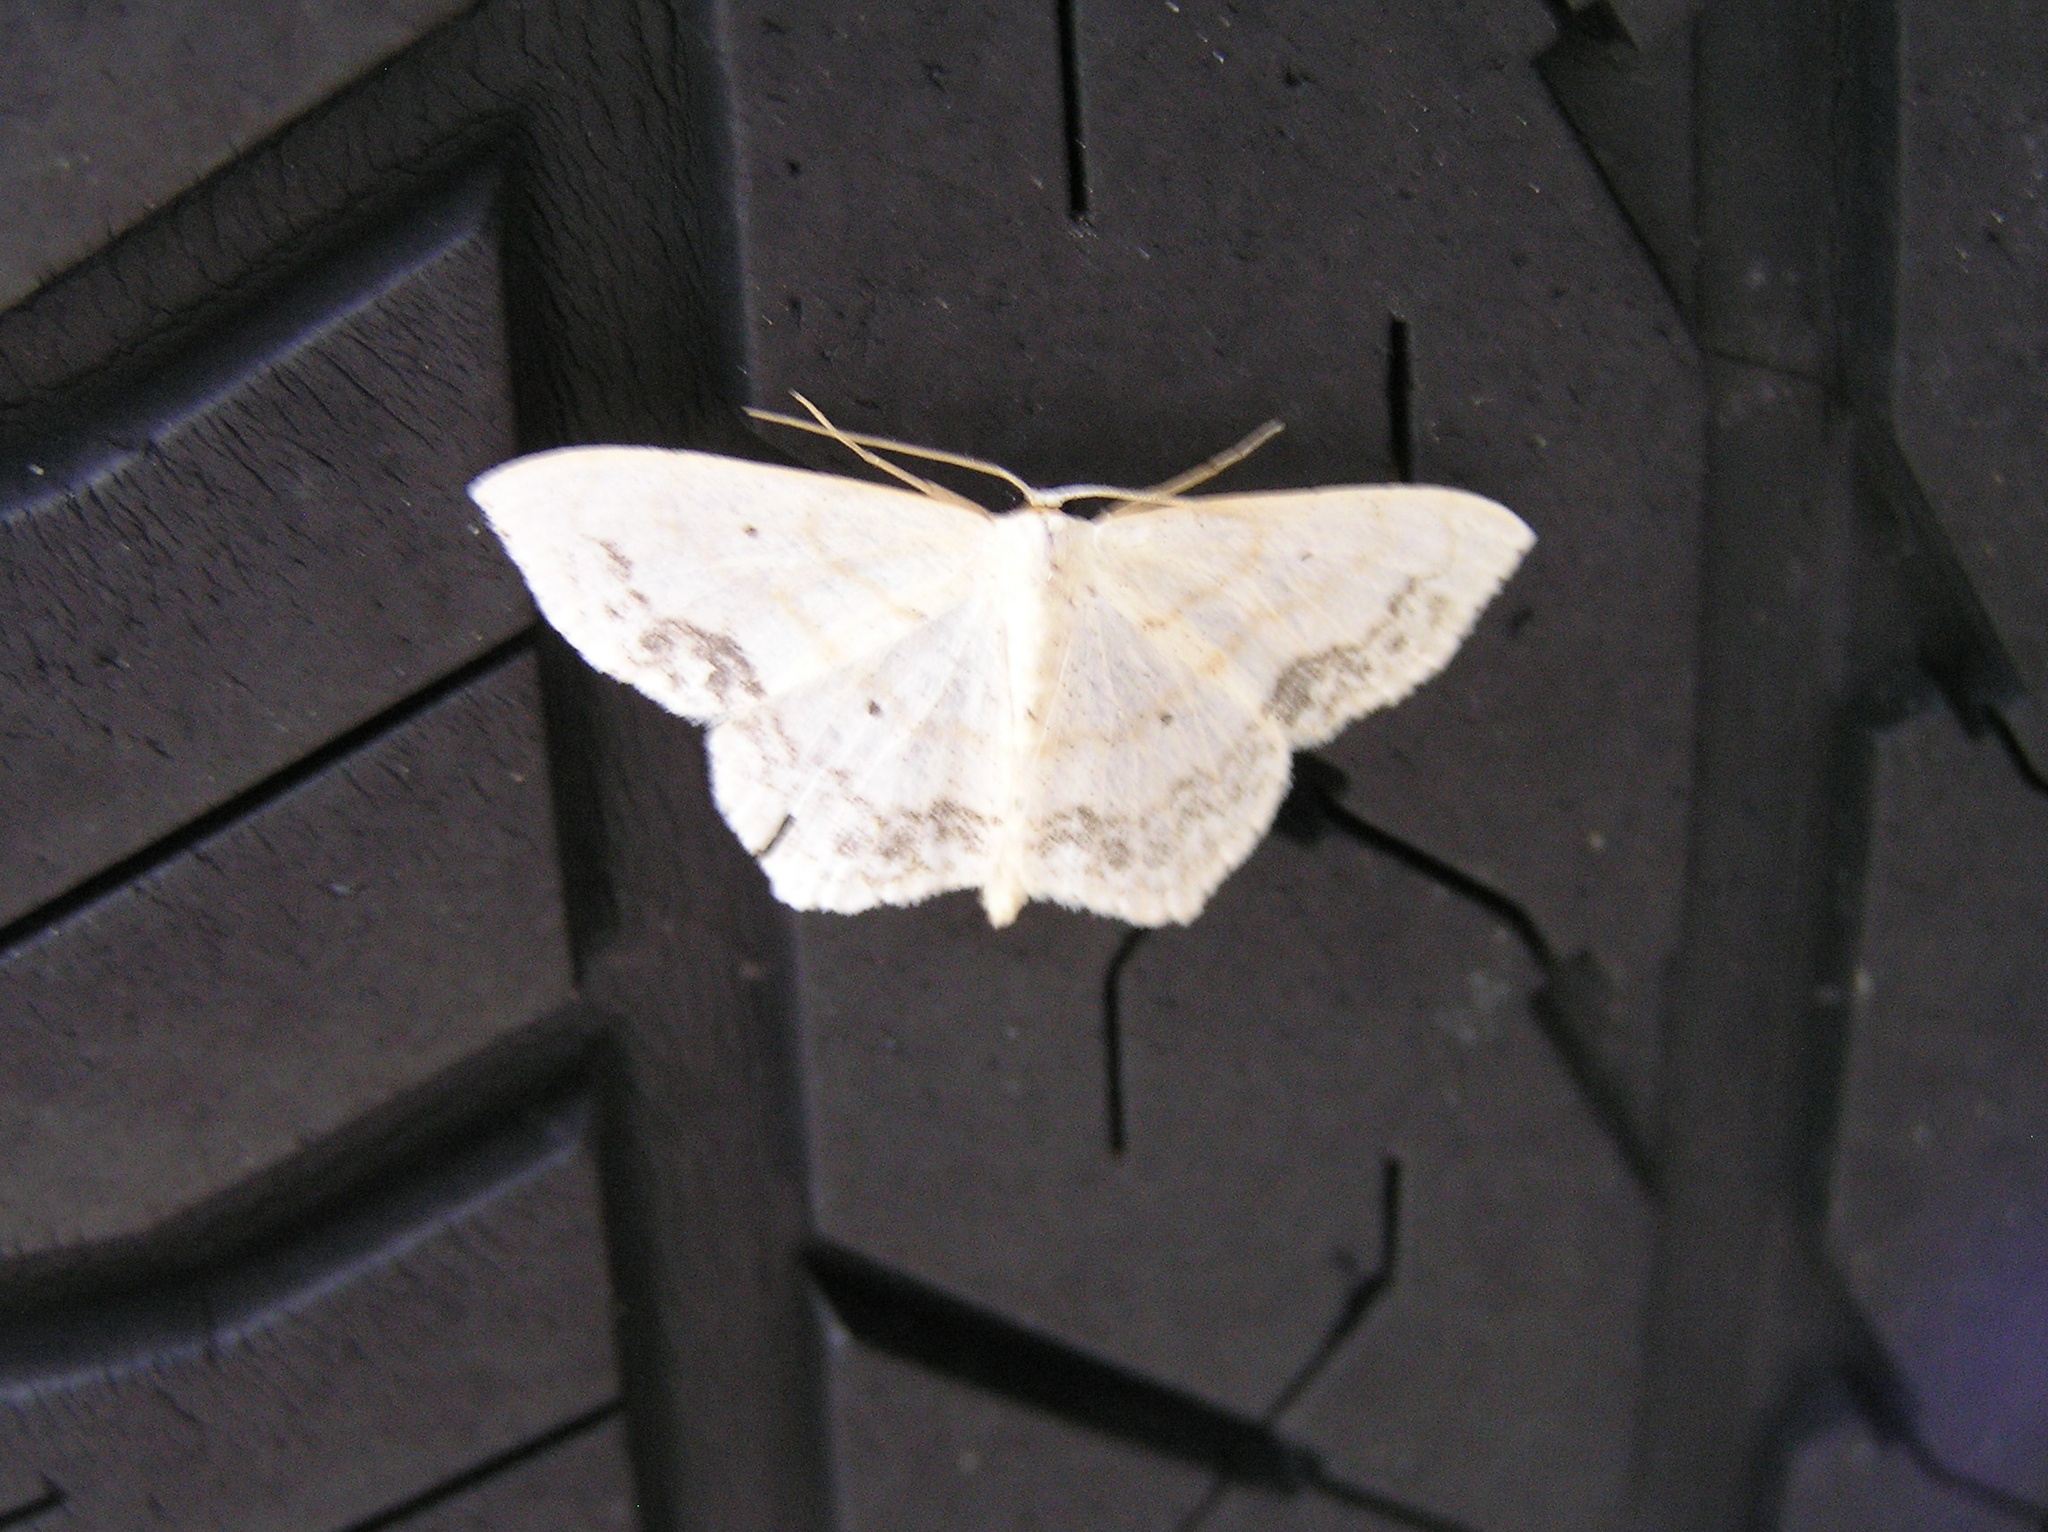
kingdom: Animalia
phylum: Arthropoda
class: Insecta
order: Lepidoptera
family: Geometridae
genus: Scopula
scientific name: Scopula limboundata
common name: Large lace border
